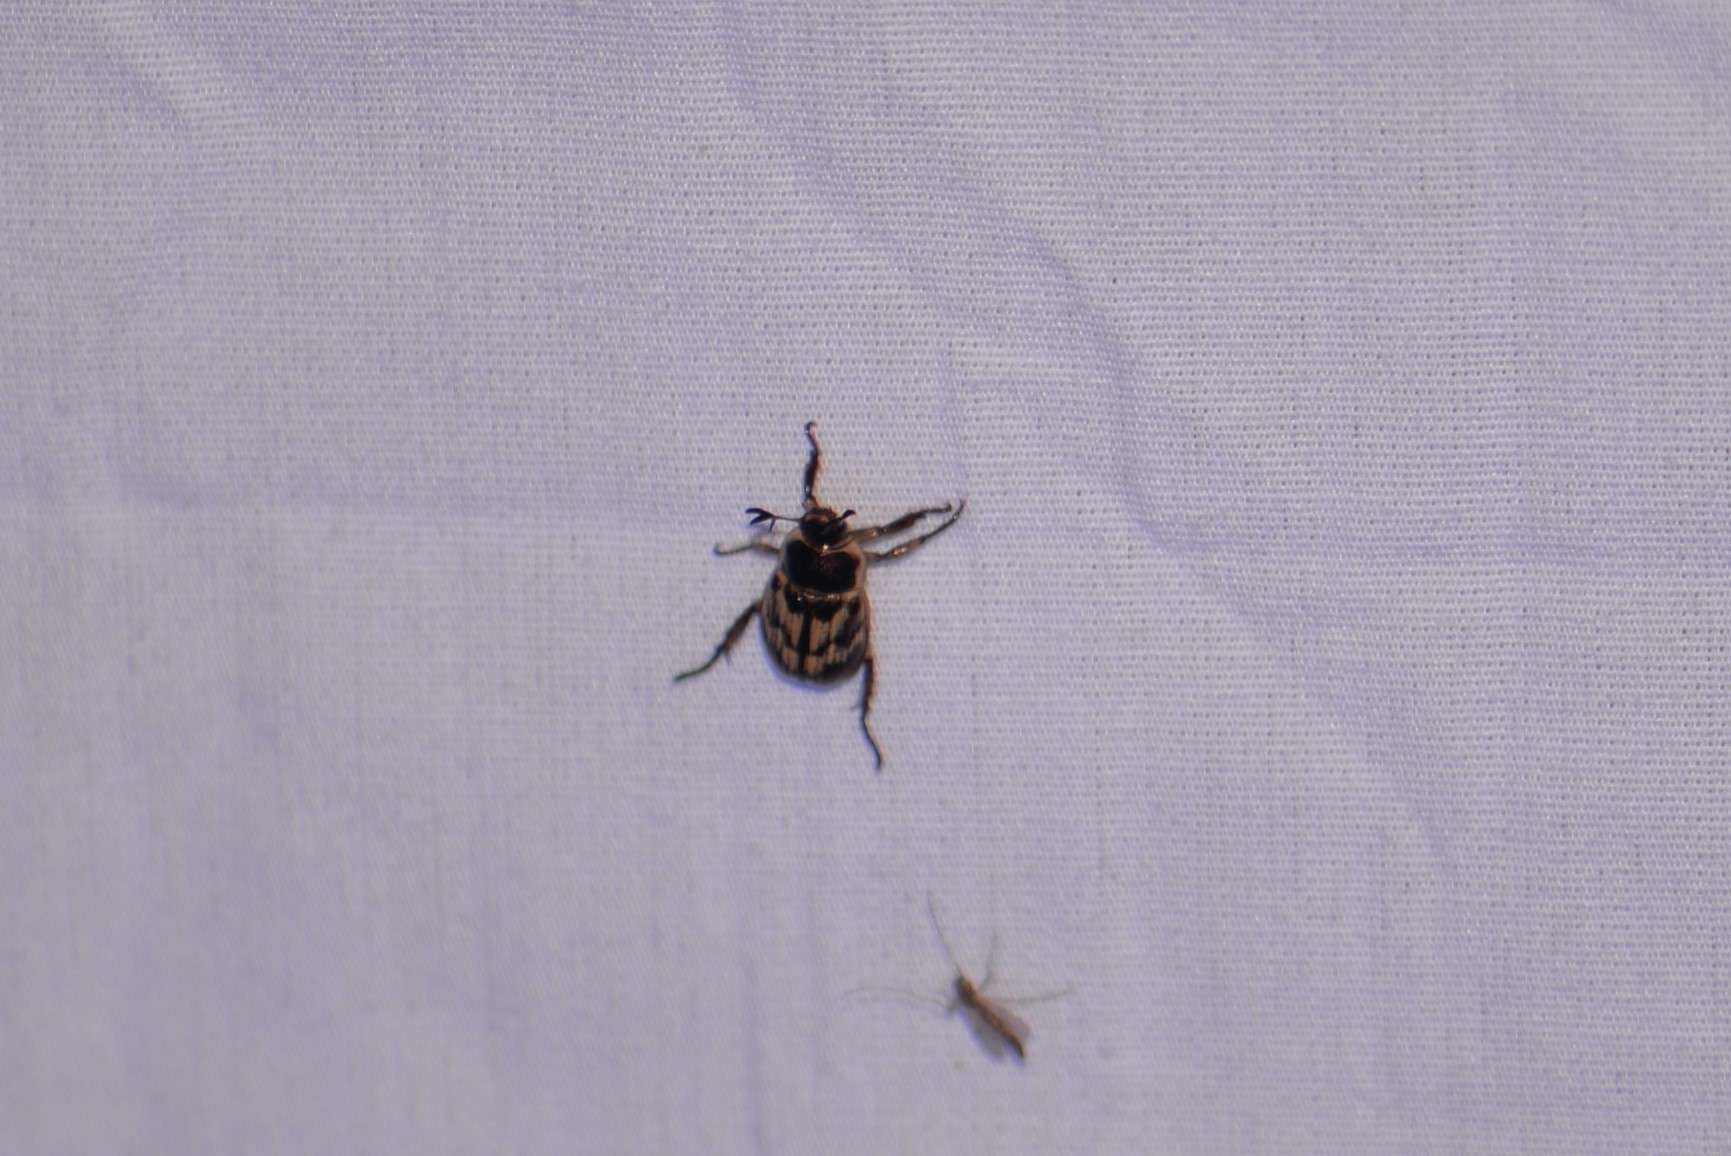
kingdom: Animalia
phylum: Arthropoda
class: Insecta
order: Coleoptera
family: Scarabaeidae
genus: Exomala
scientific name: Exomala orientalis
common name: Oriental beetle
